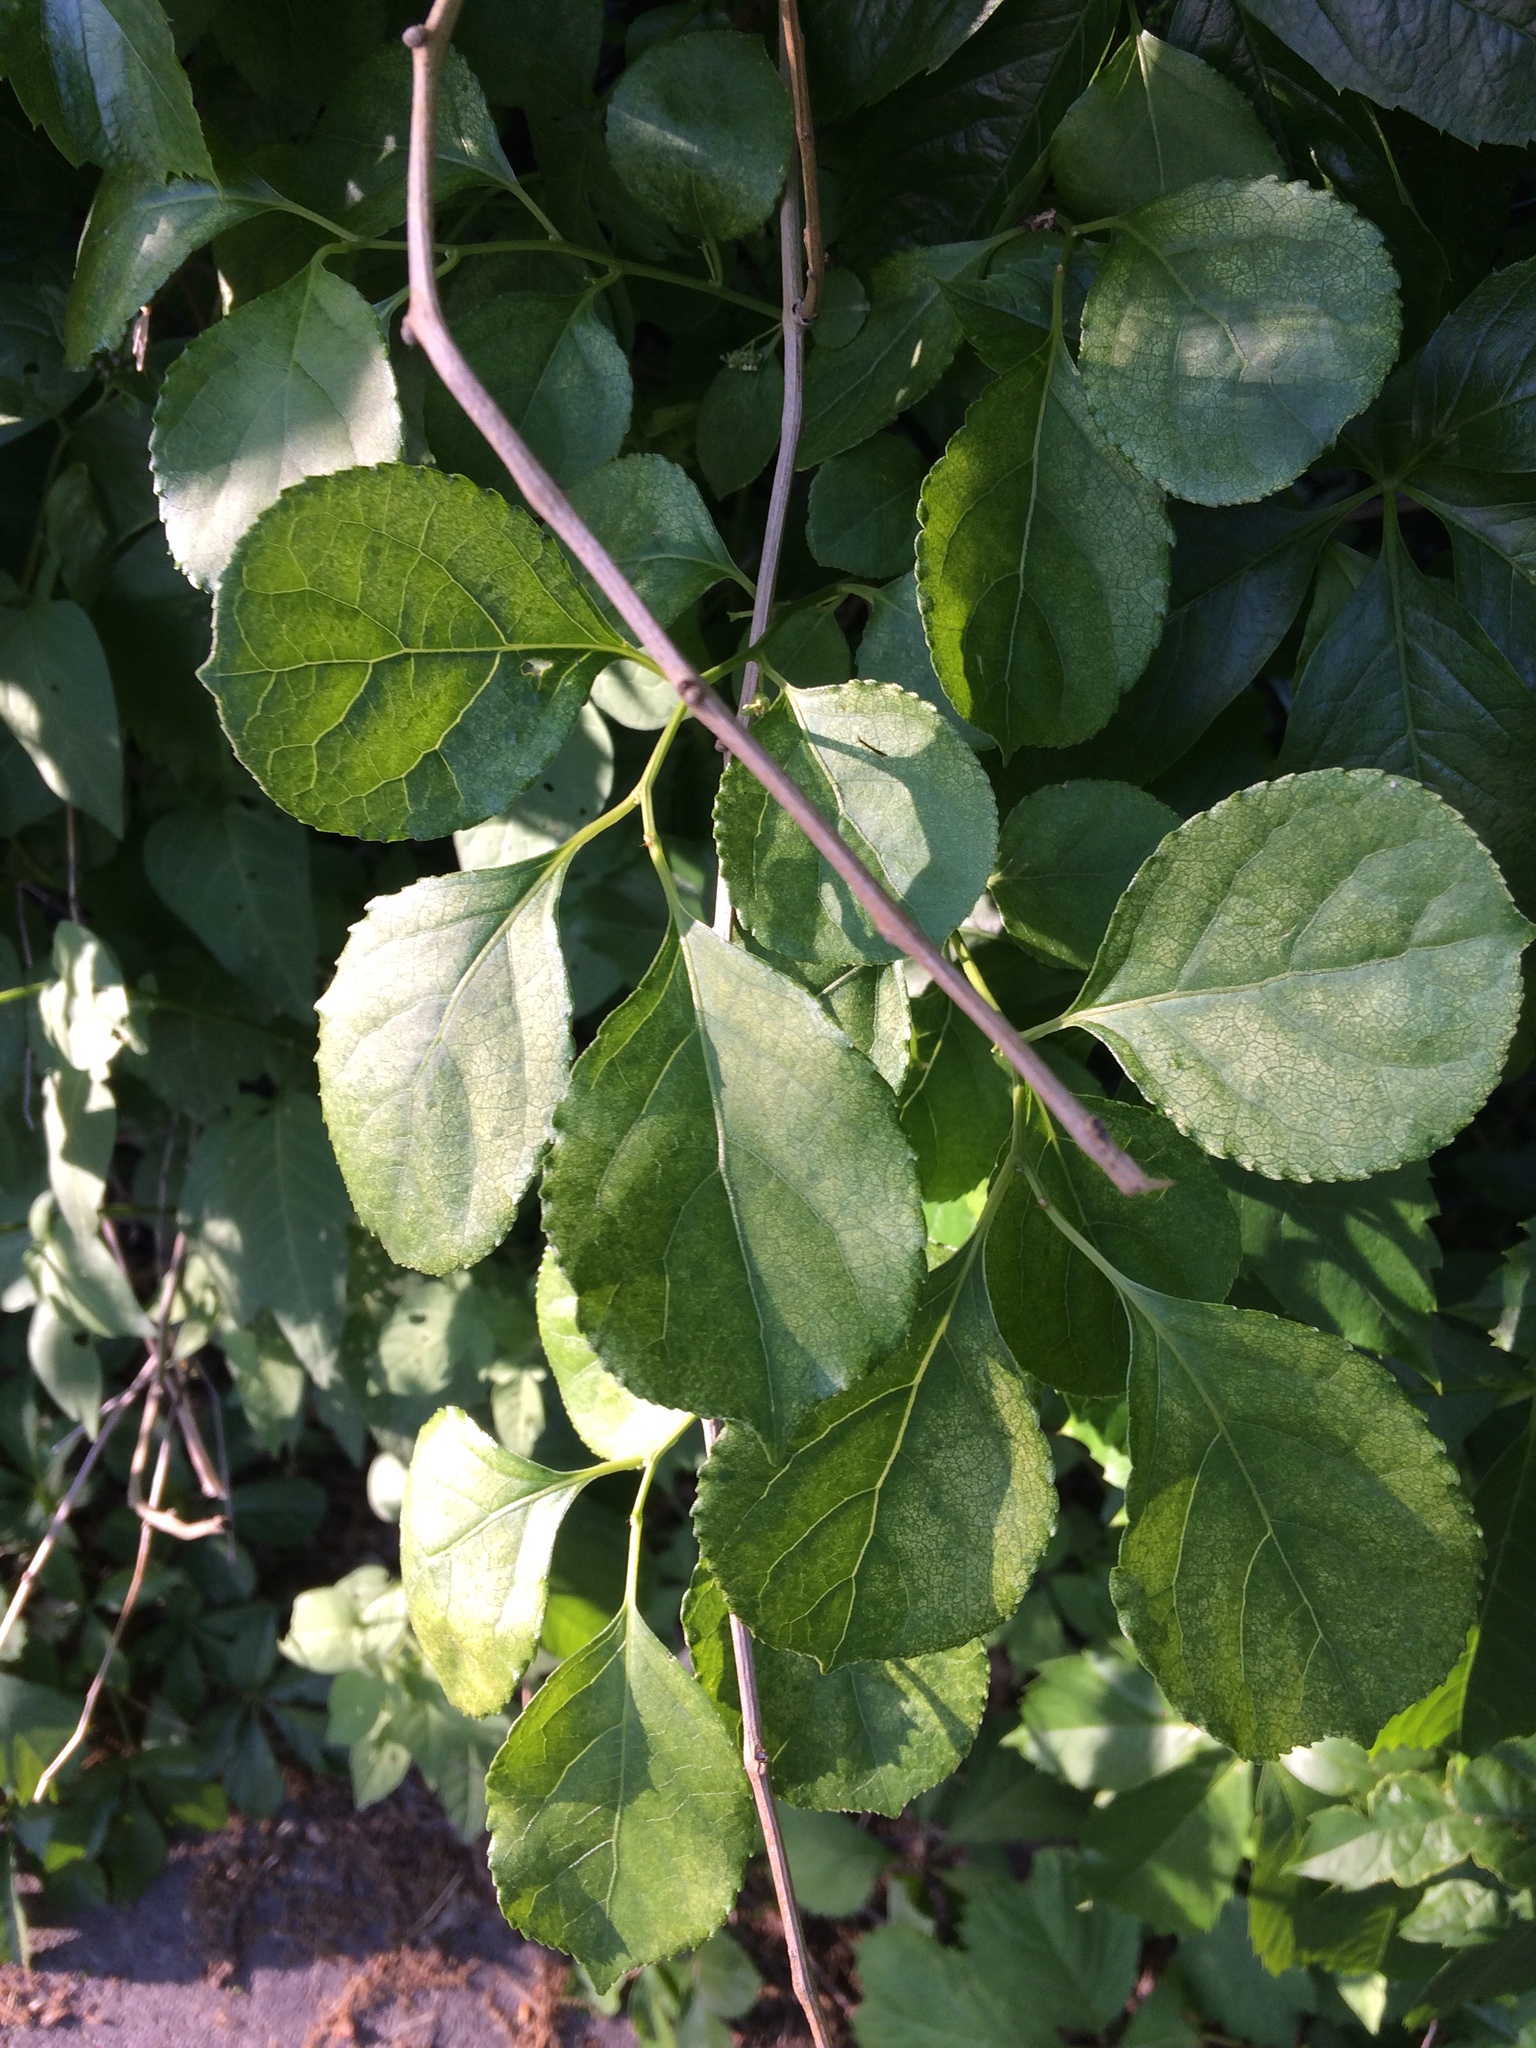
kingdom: Plantae
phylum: Tracheophyta
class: Magnoliopsida
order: Celastrales
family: Celastraceae
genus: Celastrus
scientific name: Celastrus orbiculatus
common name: Oriental bittersweet
